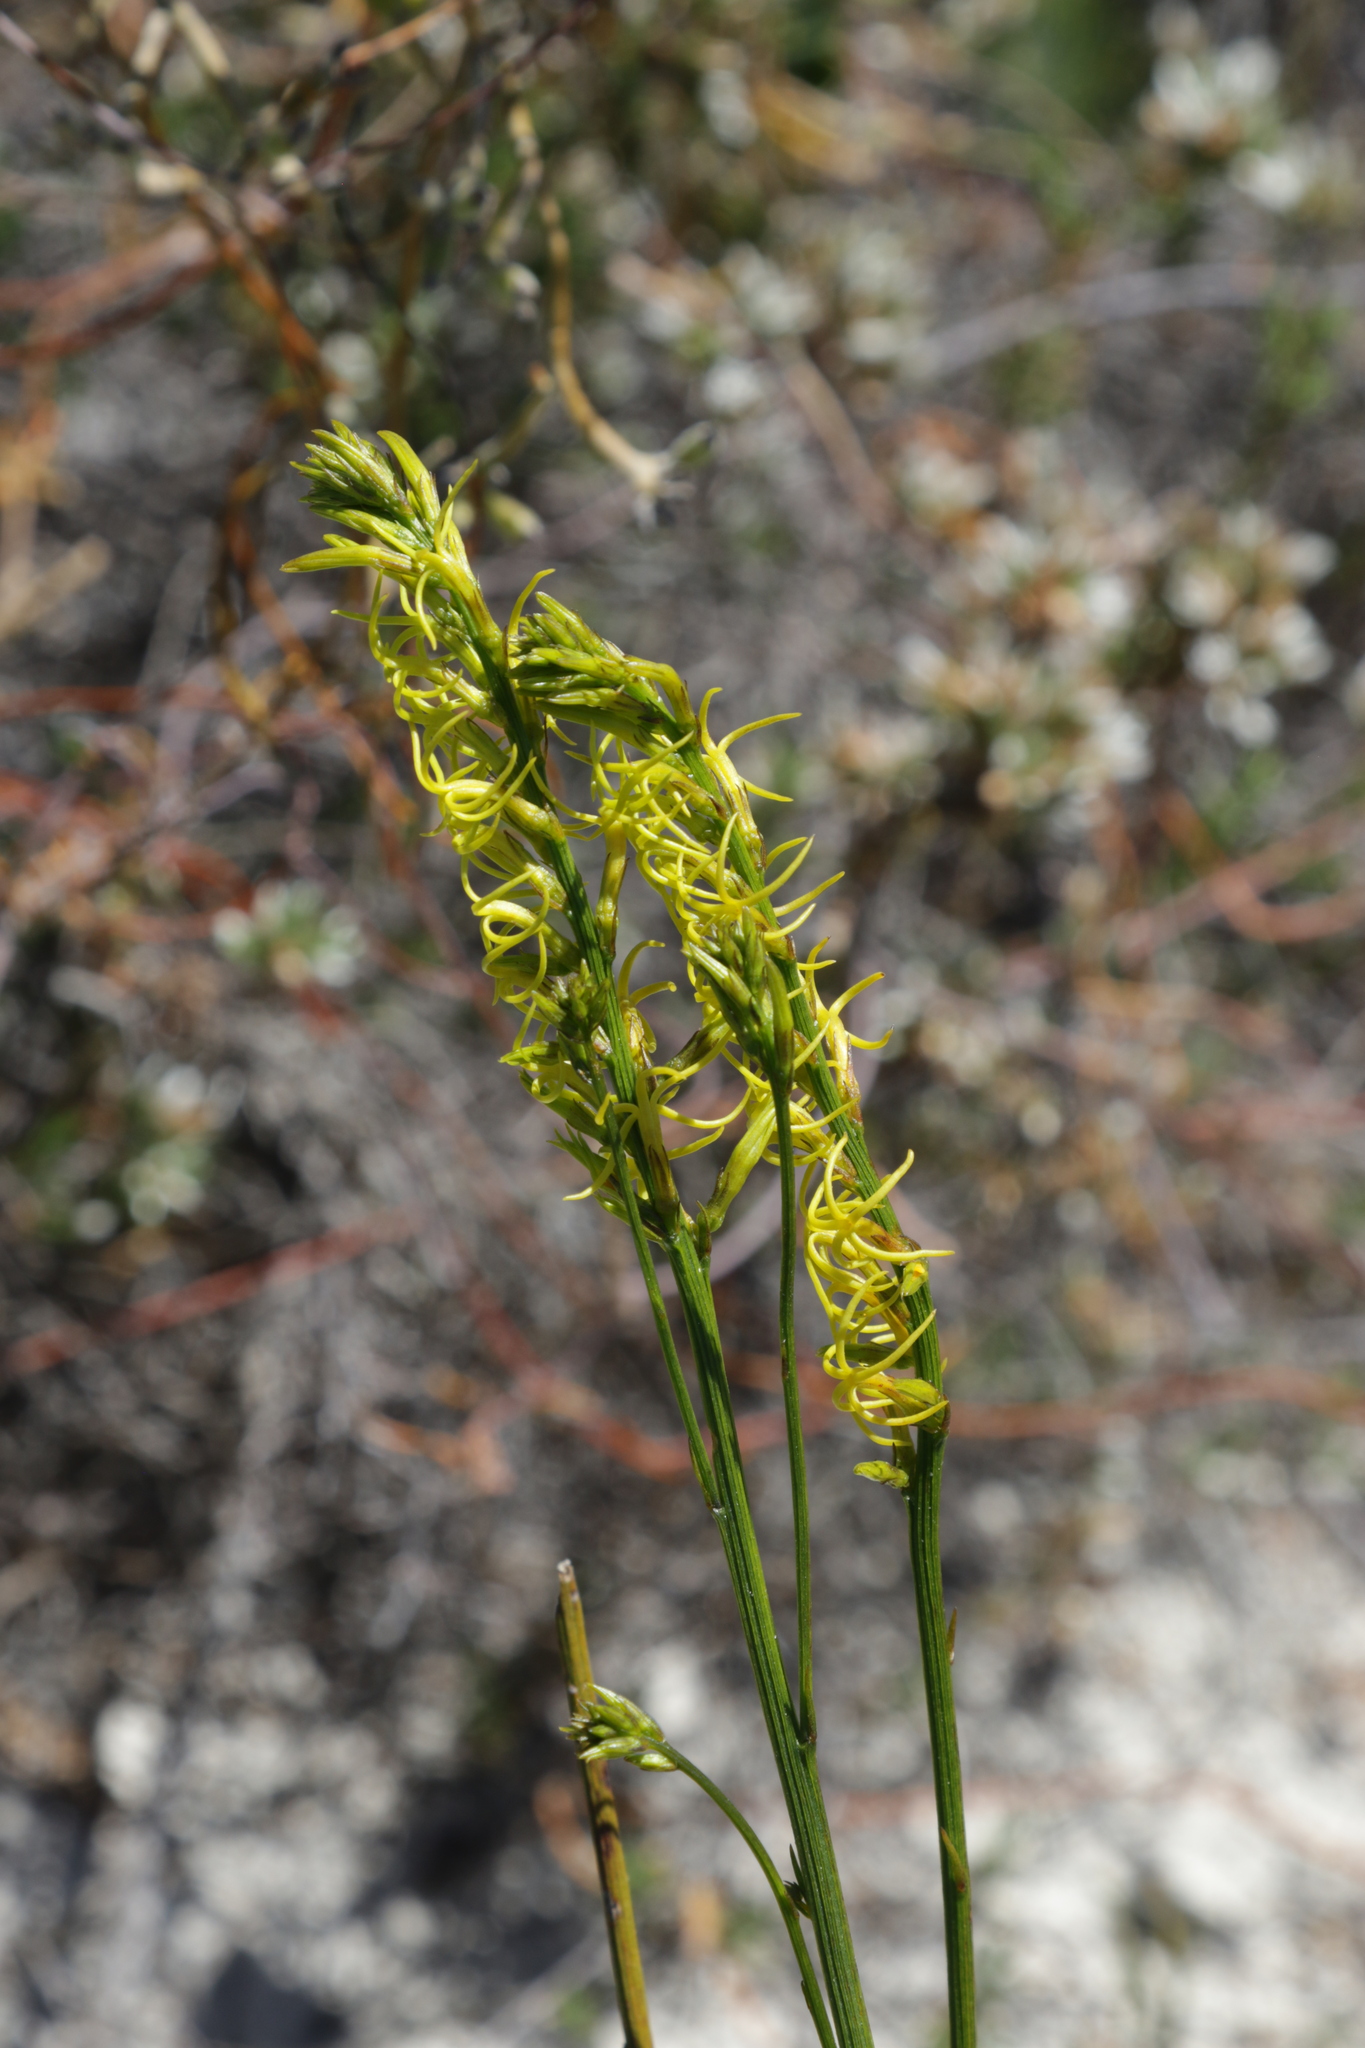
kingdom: Plantae
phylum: Tracheophyta
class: Magnoliopsida
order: Celastrales
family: Celastraceae
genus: Tripterococcus
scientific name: Tripterococcus brunonis
